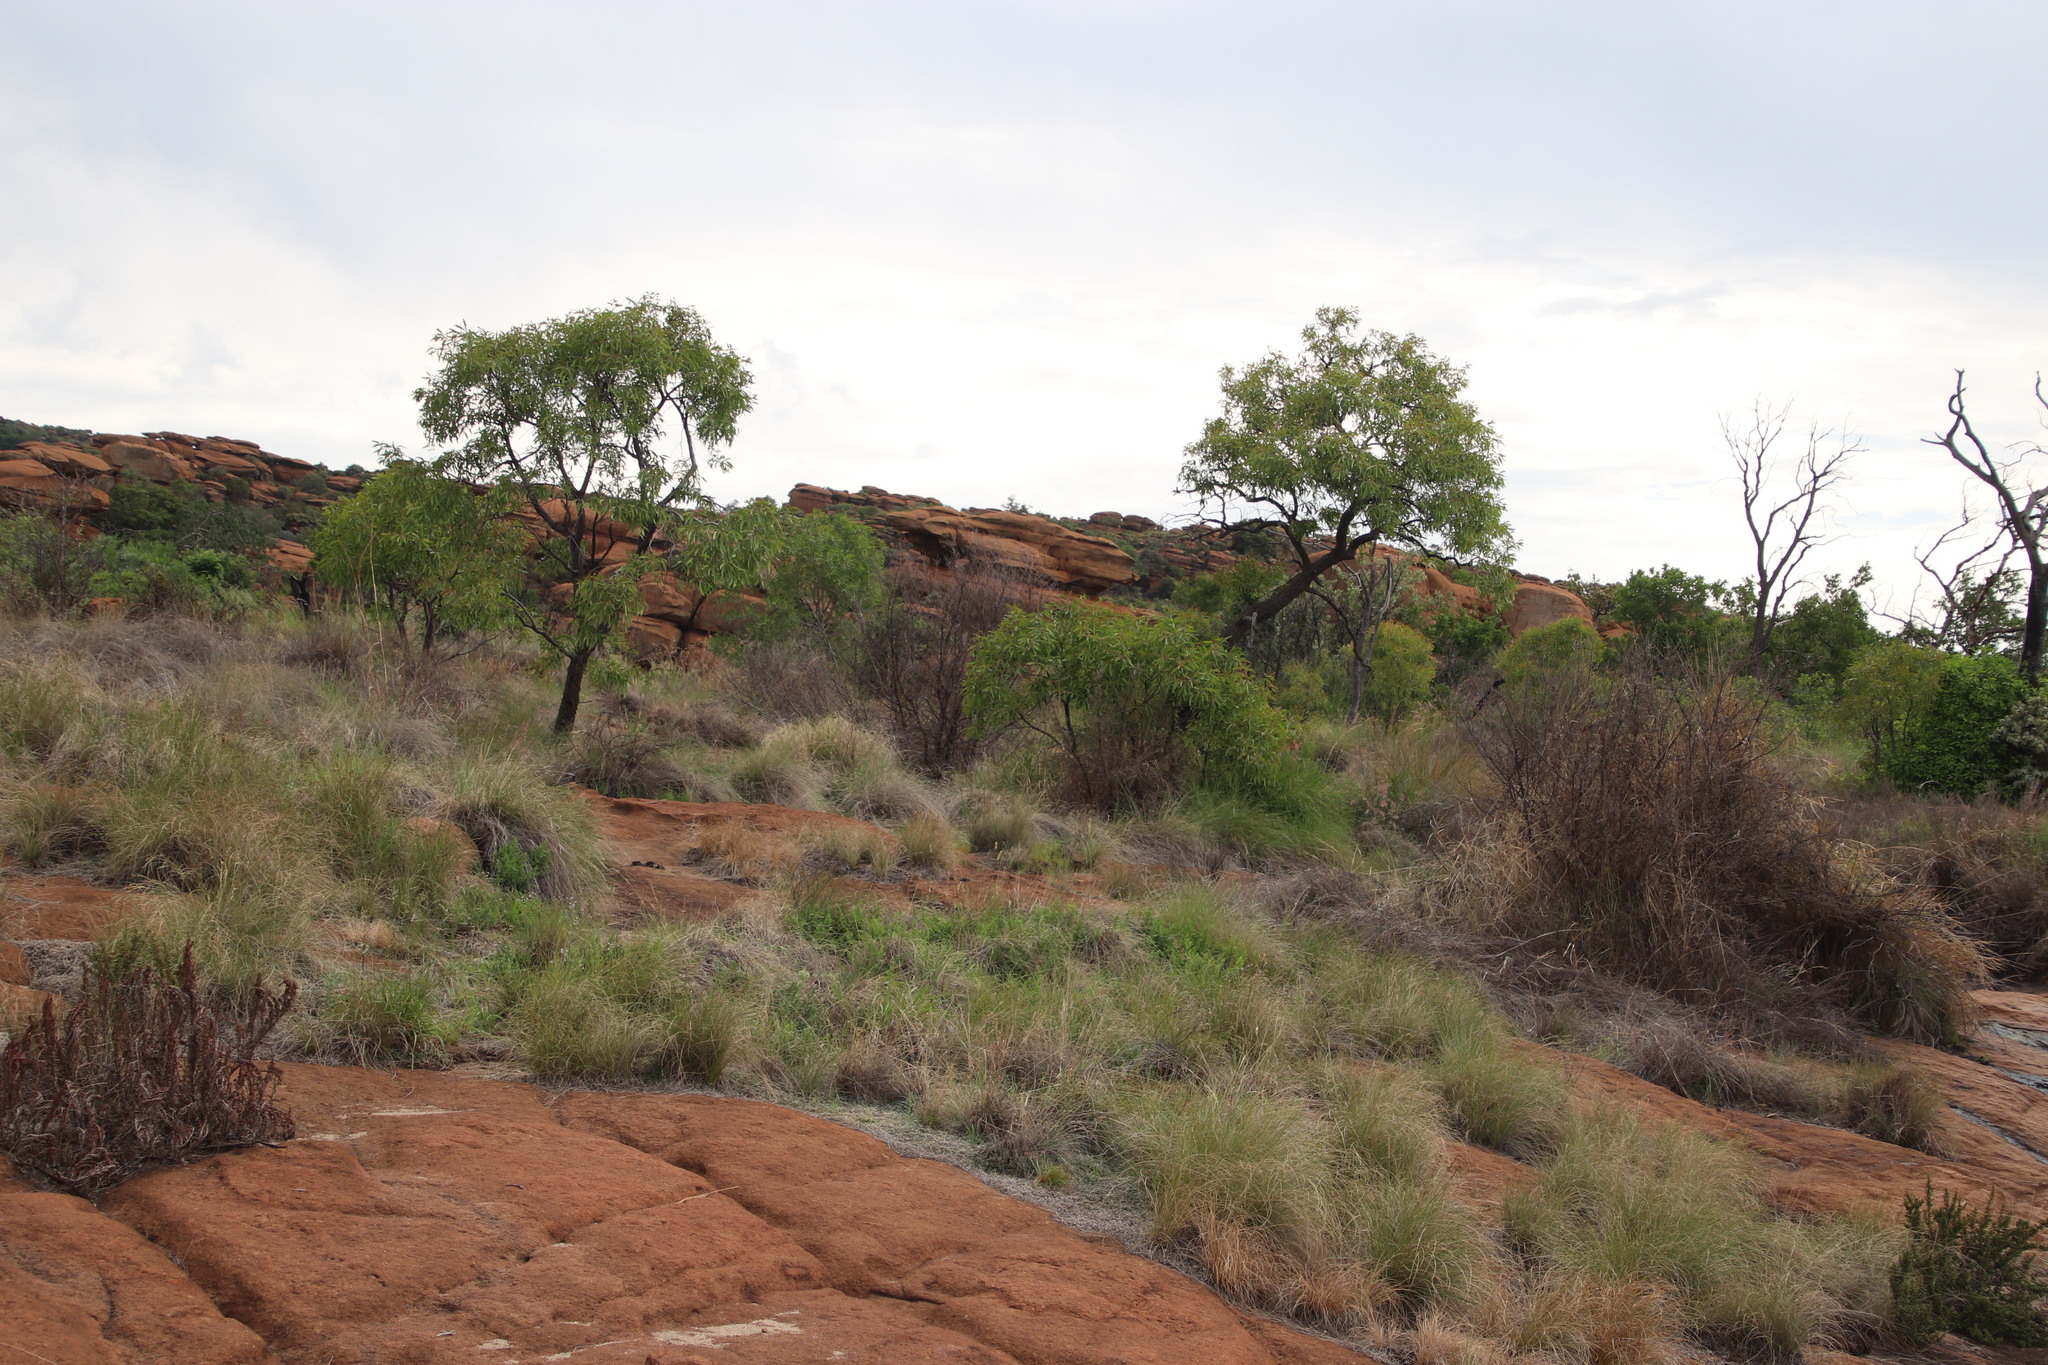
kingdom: Plantae
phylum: Tracheophyta
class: Magnoliopsida
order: Proteales
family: Proteaceae
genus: Faurea
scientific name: Faurea saligna
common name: African bean
